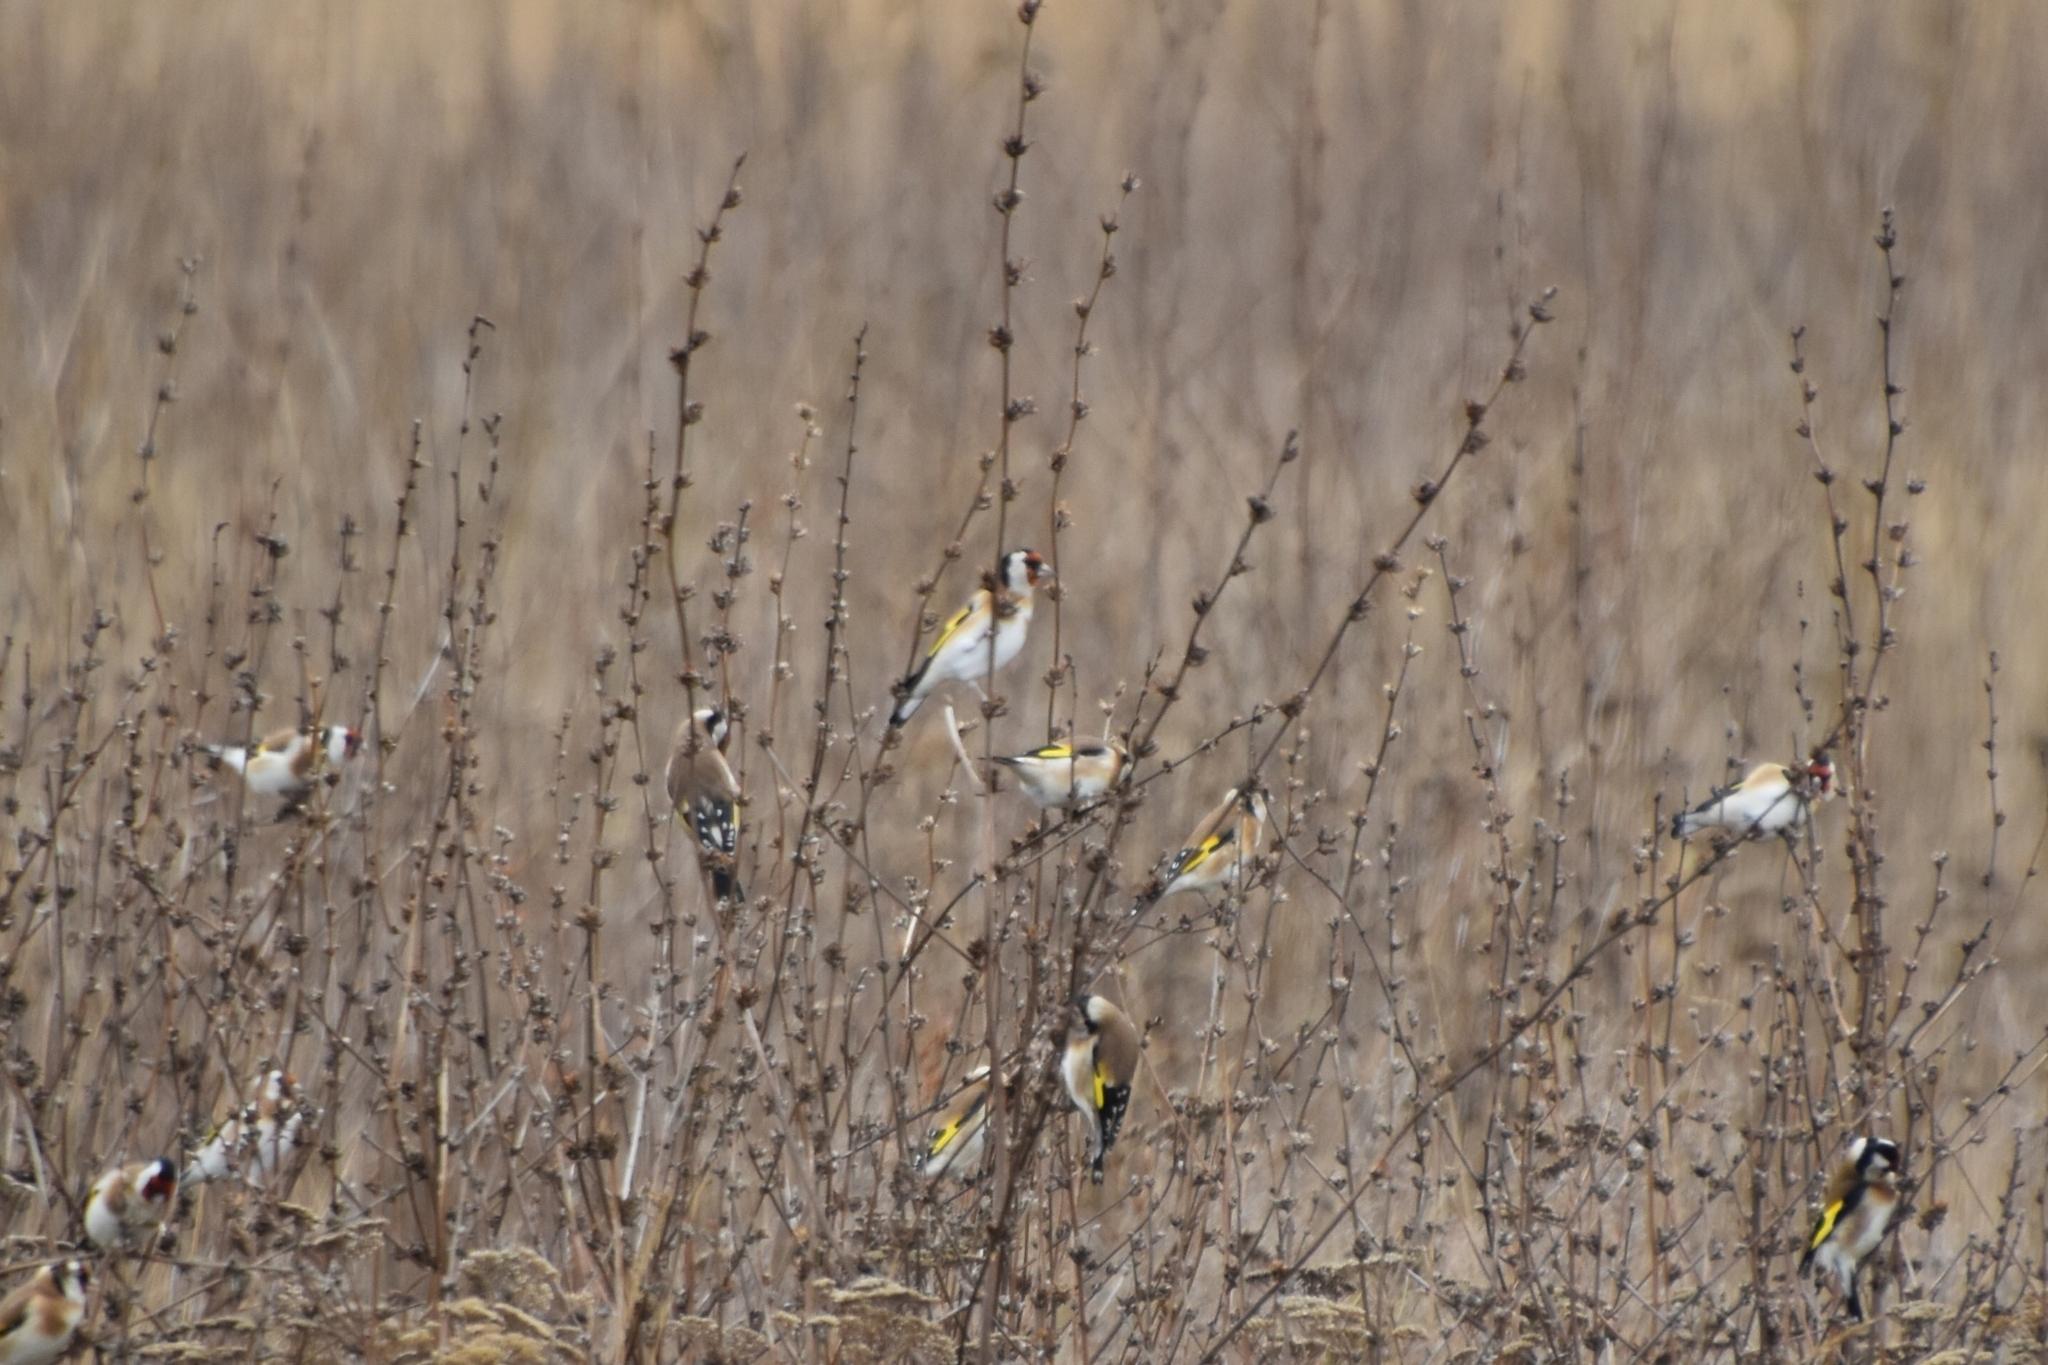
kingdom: Animalia
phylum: Chordata
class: Aves
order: Passeriformes
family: Fringillidae
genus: Carduelis
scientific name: Carduelis carduelis
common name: European goldfinch
